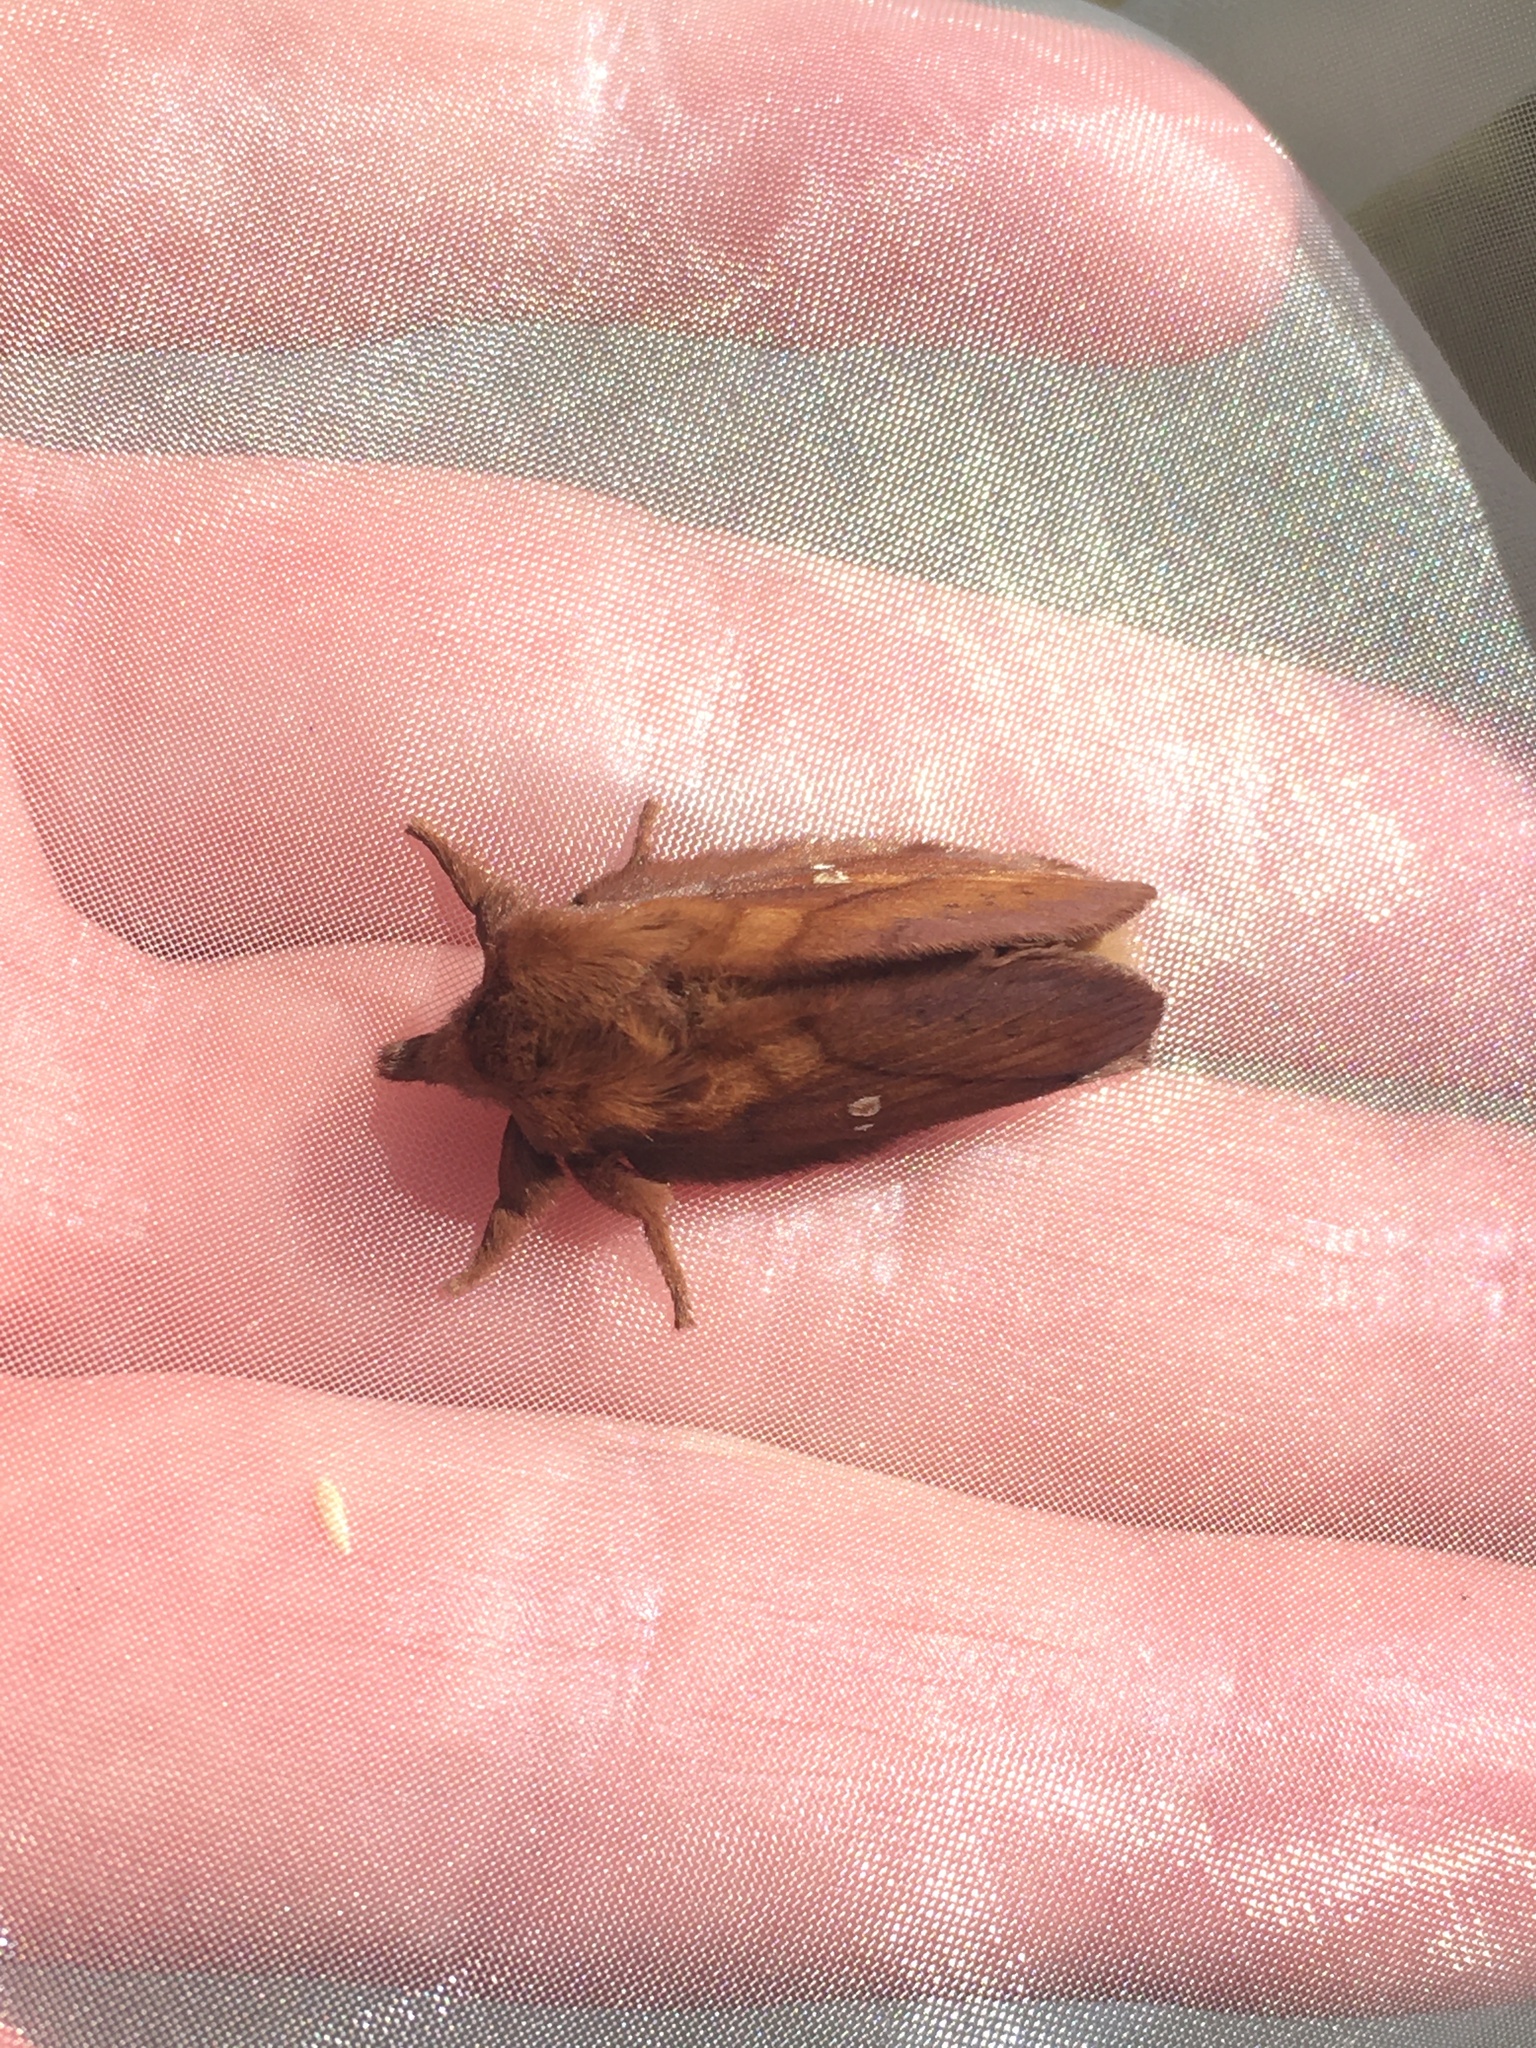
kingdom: Animalia
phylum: Arthropoda
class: Insecta
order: Lepidoptera
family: Lasiocampidae
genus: Euthrix
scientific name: Euthrix potatoria
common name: Drinker
